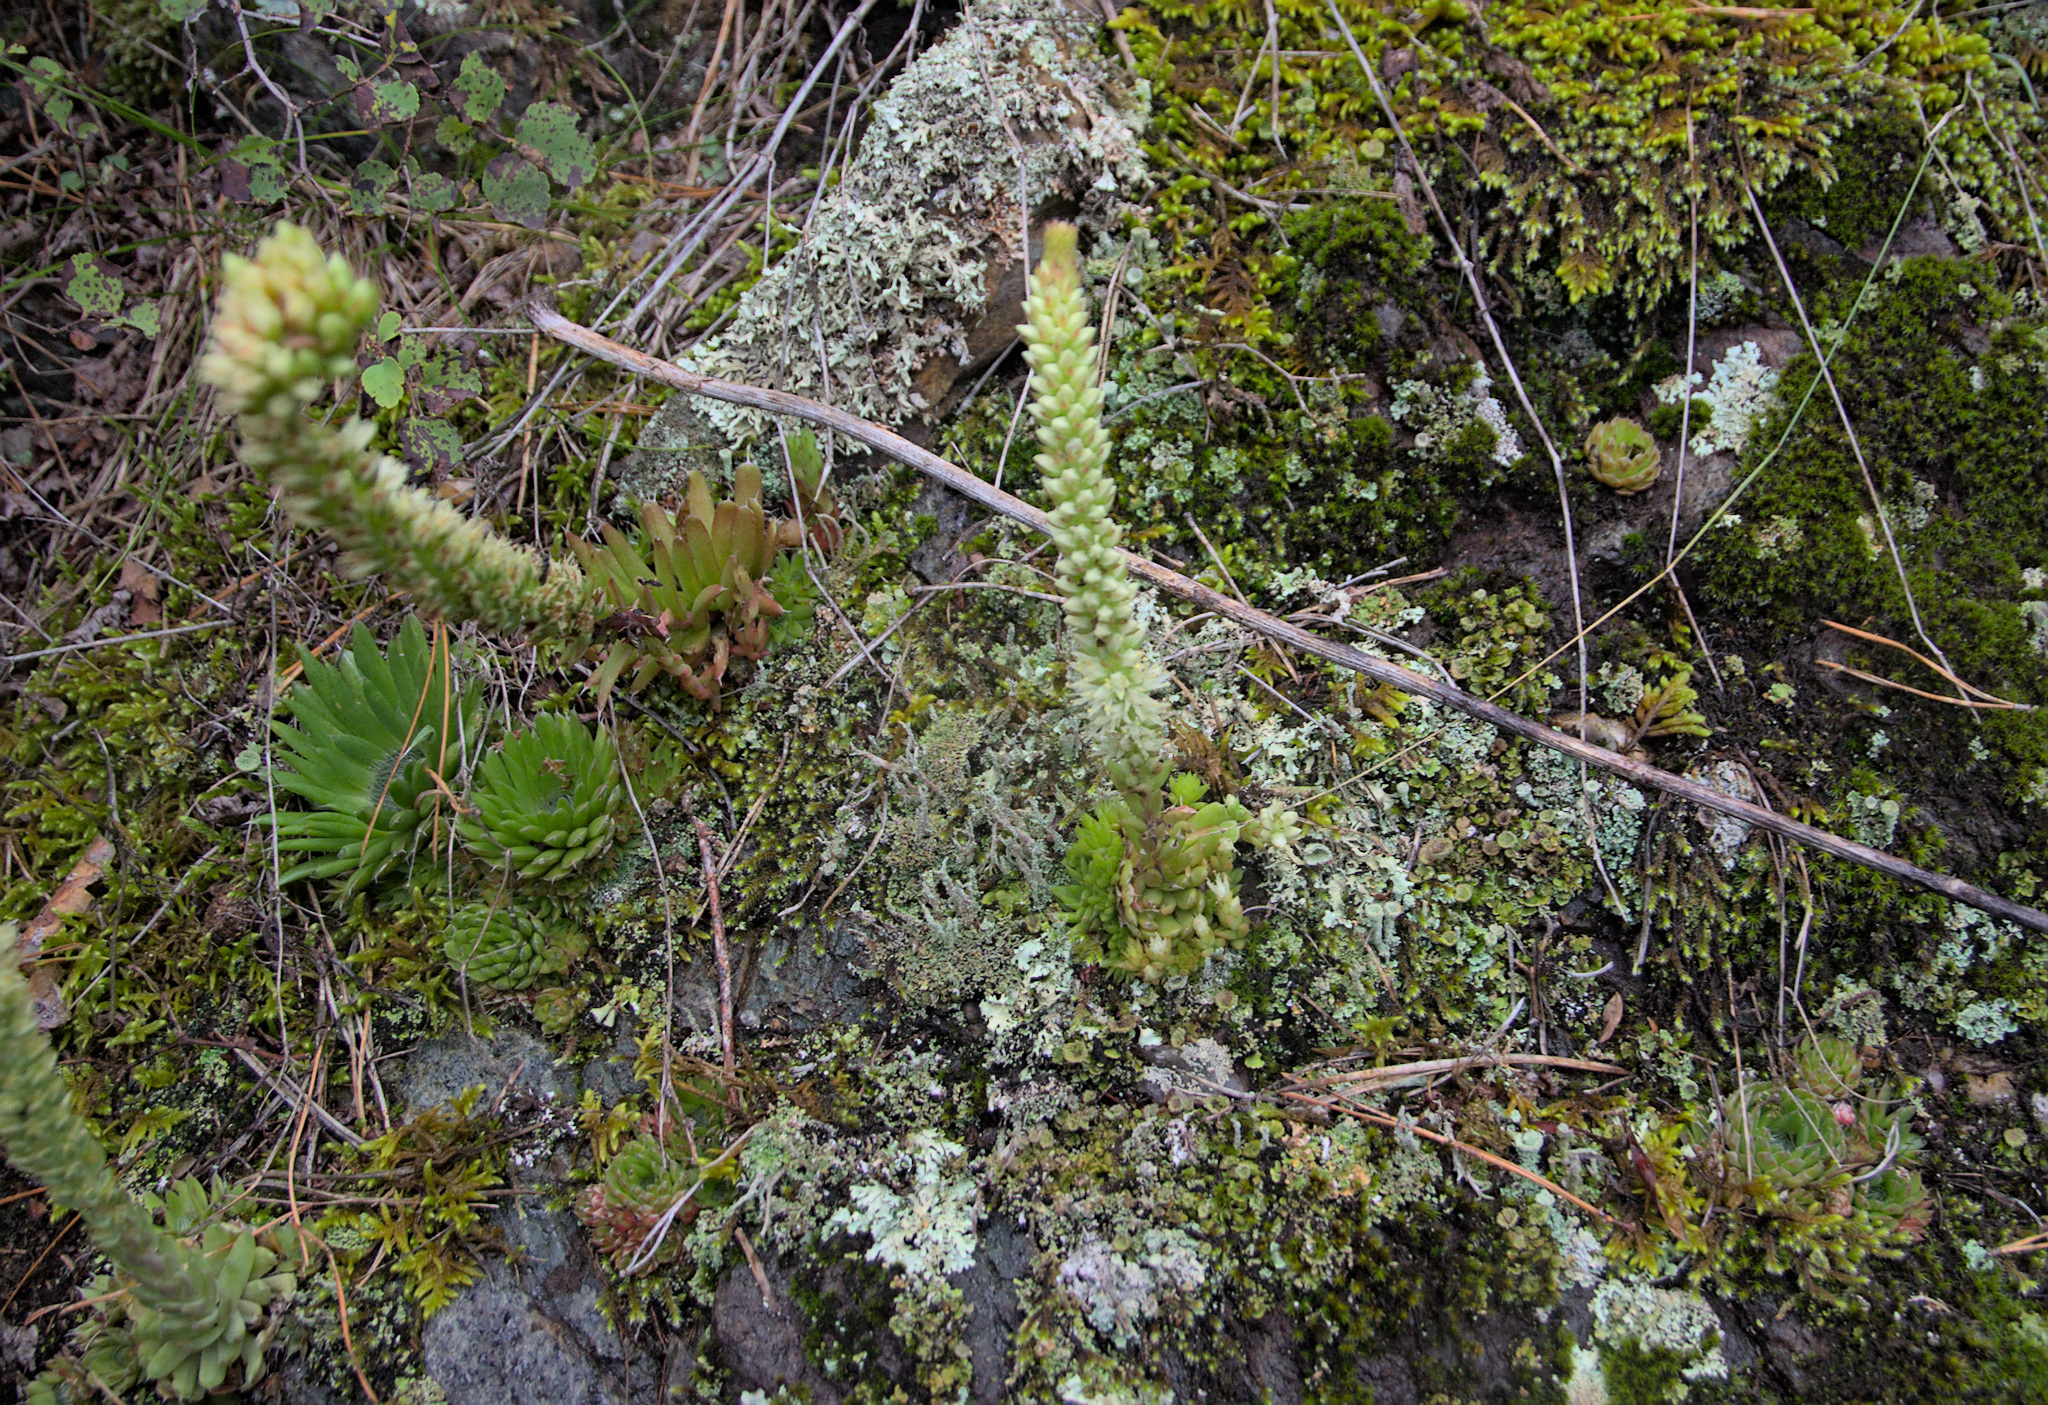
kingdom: Plantae
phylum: Tracheophyta
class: Magnoliopsida
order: Saxifragales
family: Crassulaceae
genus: Orostachys
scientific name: Orostachys spinosa
